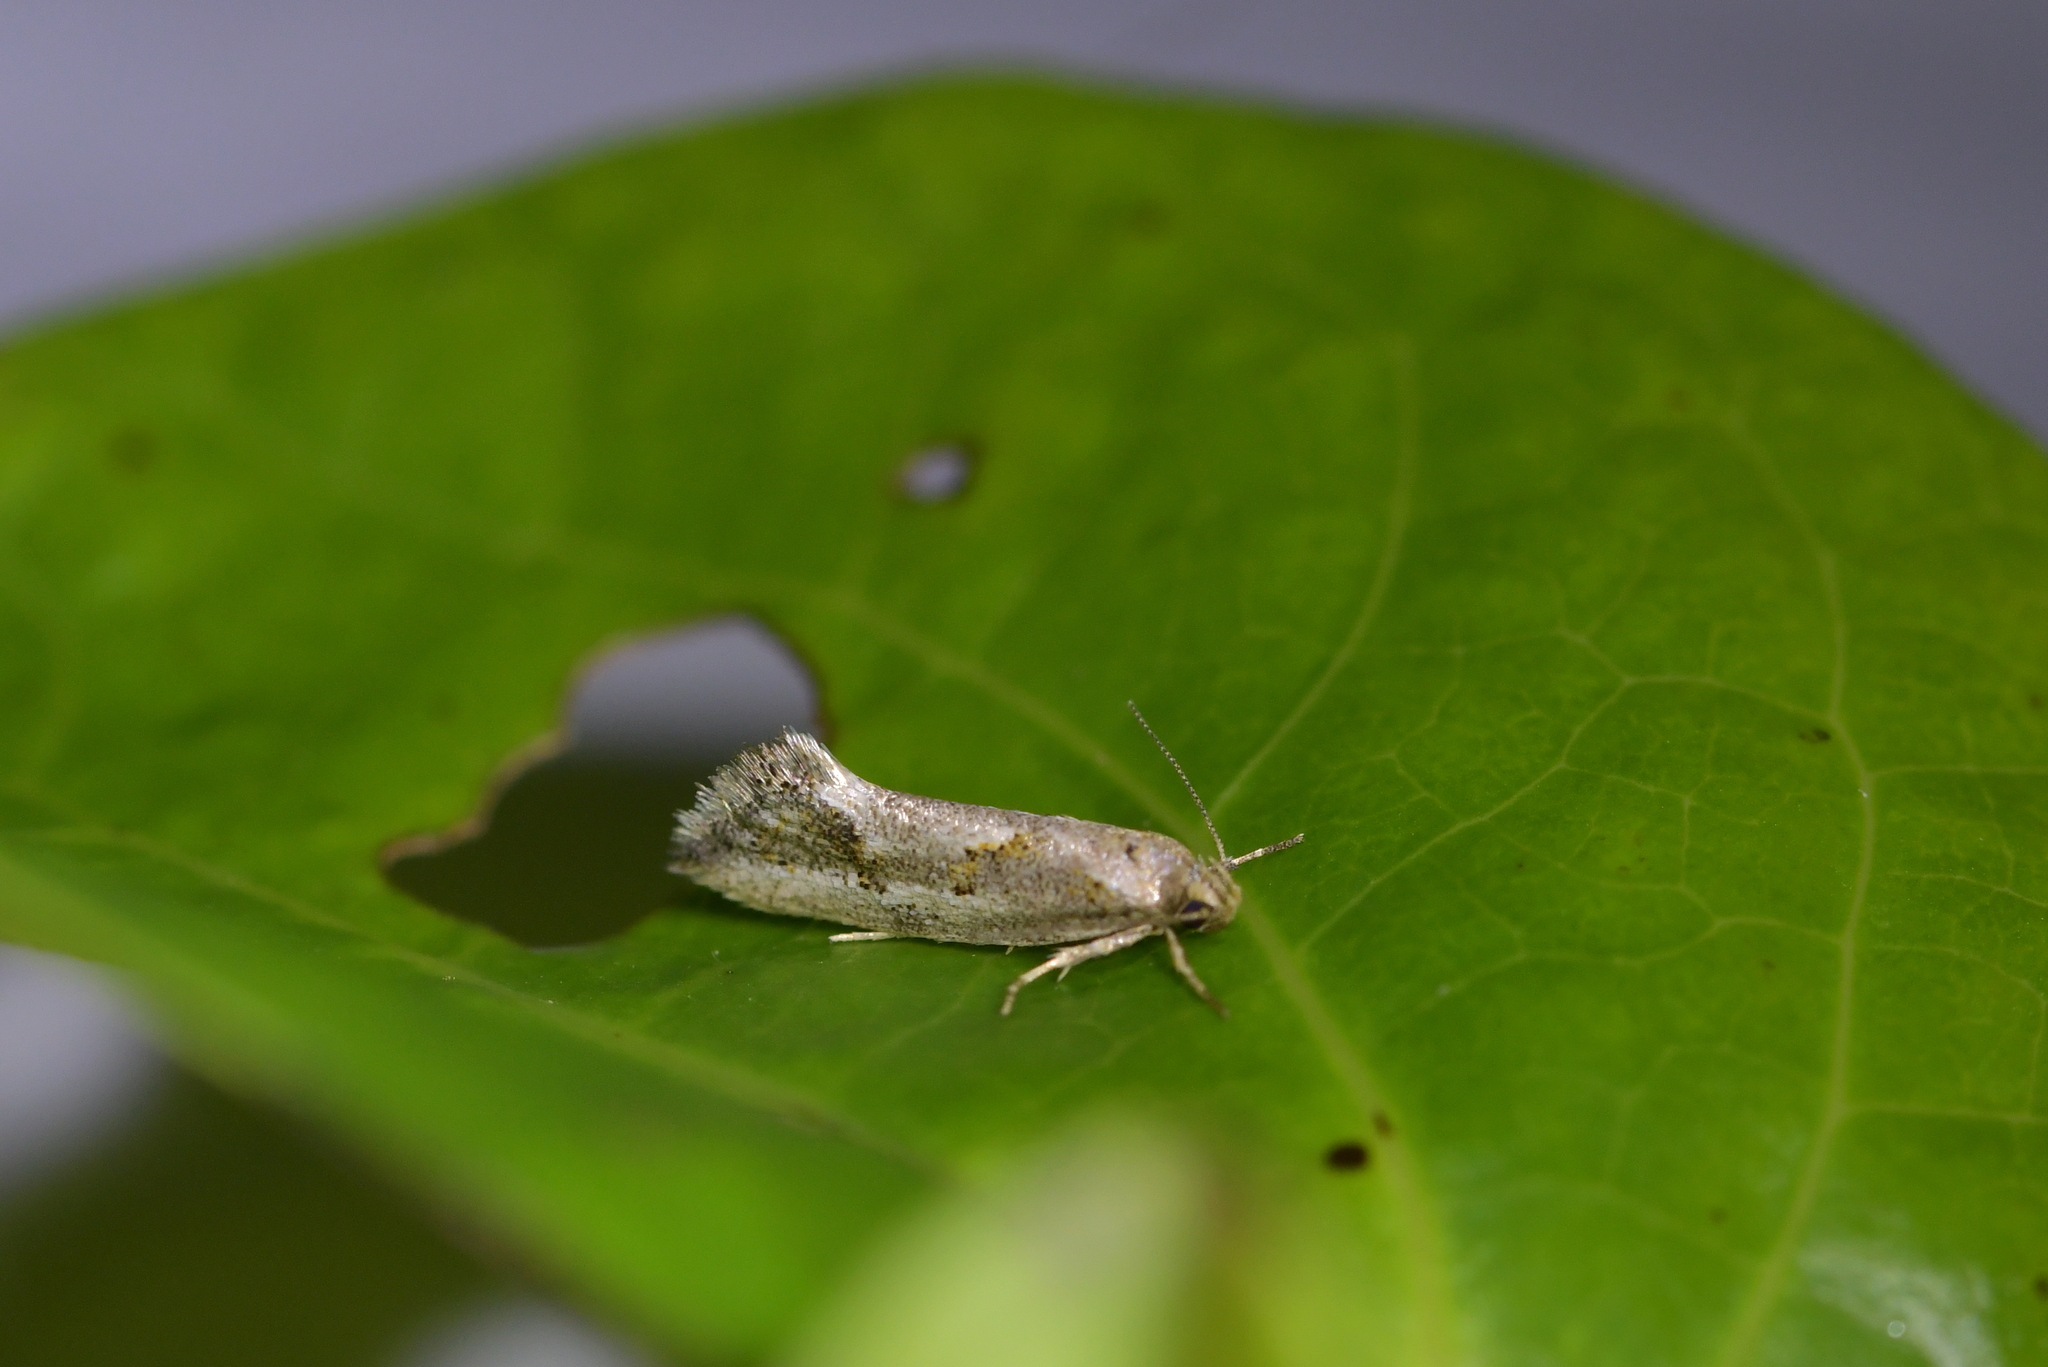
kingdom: Animalia
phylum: Arthropoda
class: Insecta
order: Lepidoptera
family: Oecophoridae
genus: Tingena
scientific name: Tingena hemimochla
